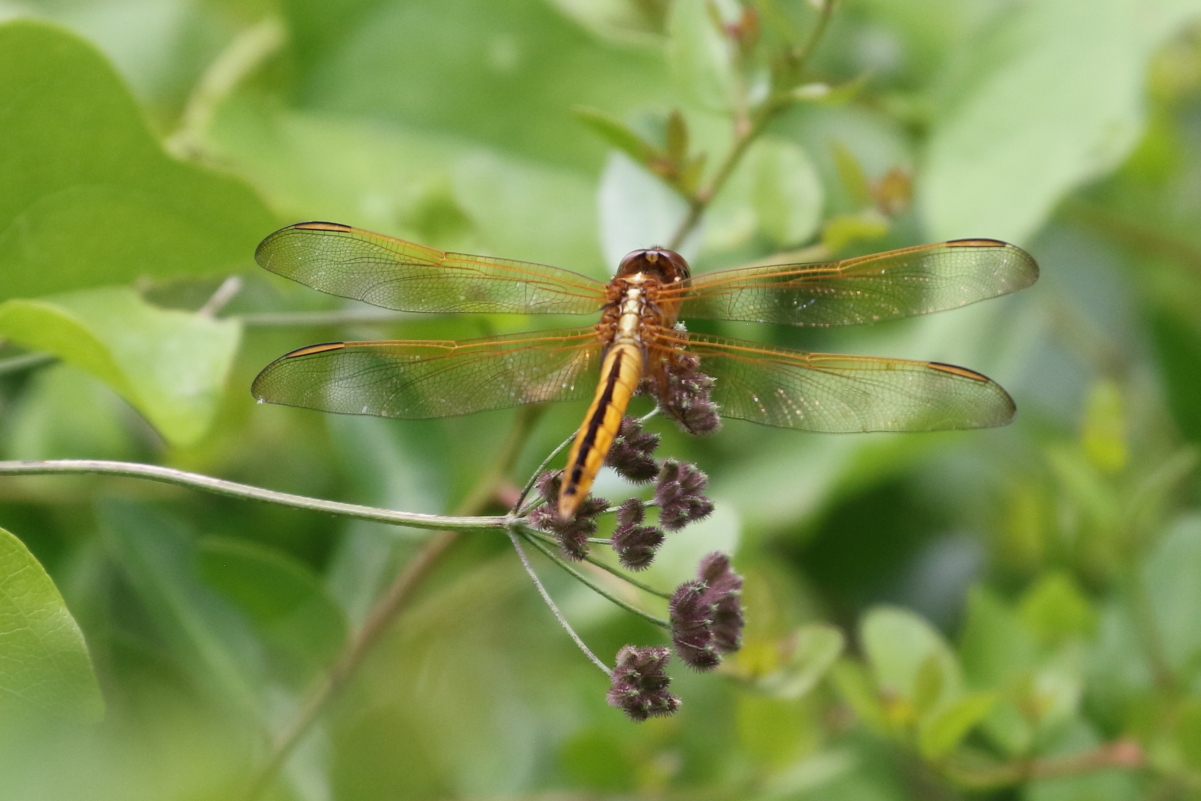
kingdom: Animalia
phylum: Arthropoda
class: Insecta
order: Odonata
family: Libellulidae
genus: Libellula
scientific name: Libellula needhami
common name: Needham's skimmer
